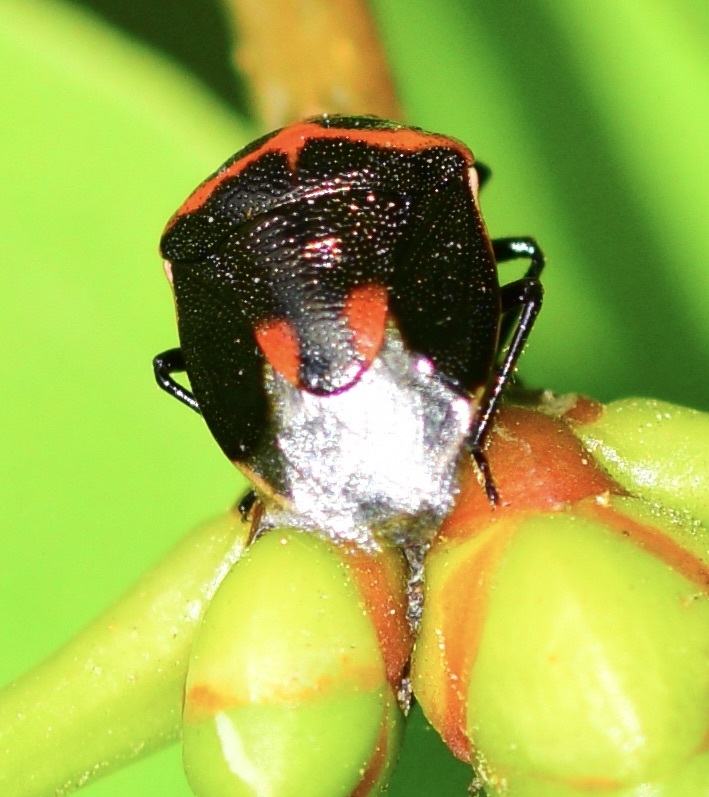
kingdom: Animalia
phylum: Arthropoda
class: Insecta
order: Hemiptera
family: Pentatomidae
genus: Cosmopepla
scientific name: Cosmopepla lintneriana
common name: Twice-stabbed stink bug
